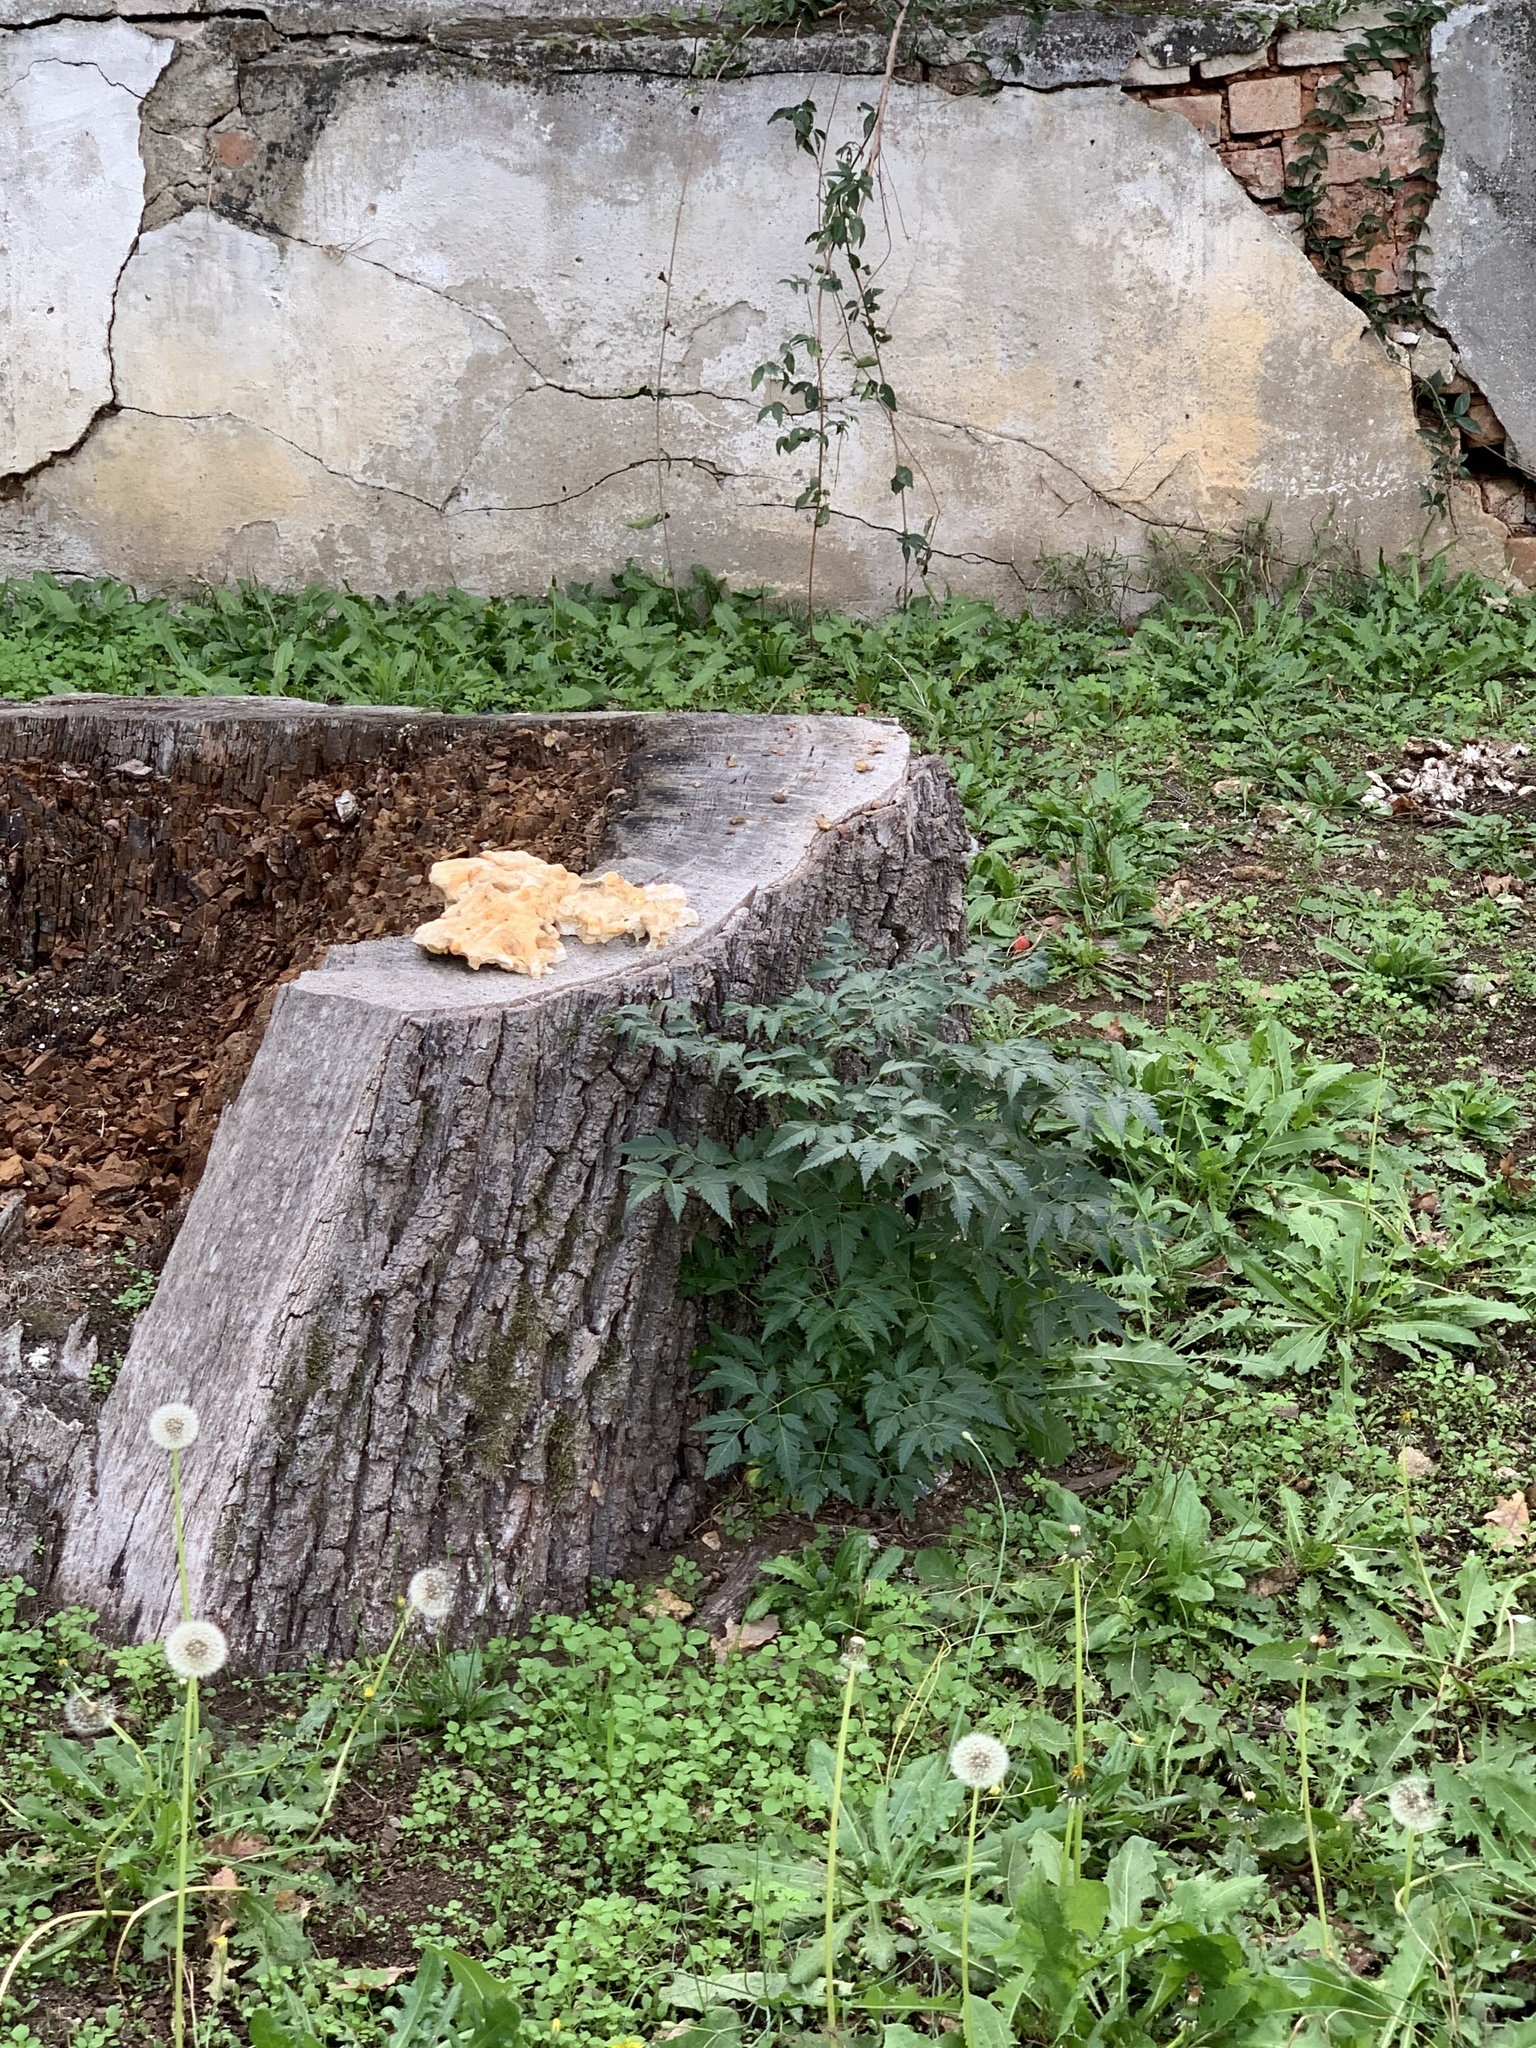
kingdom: Plantae
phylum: Tracheophyta
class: Magnoliopsida
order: Sapindales
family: Meliaceae
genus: Melia
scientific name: Melia azedarach
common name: Chinaberrytree
